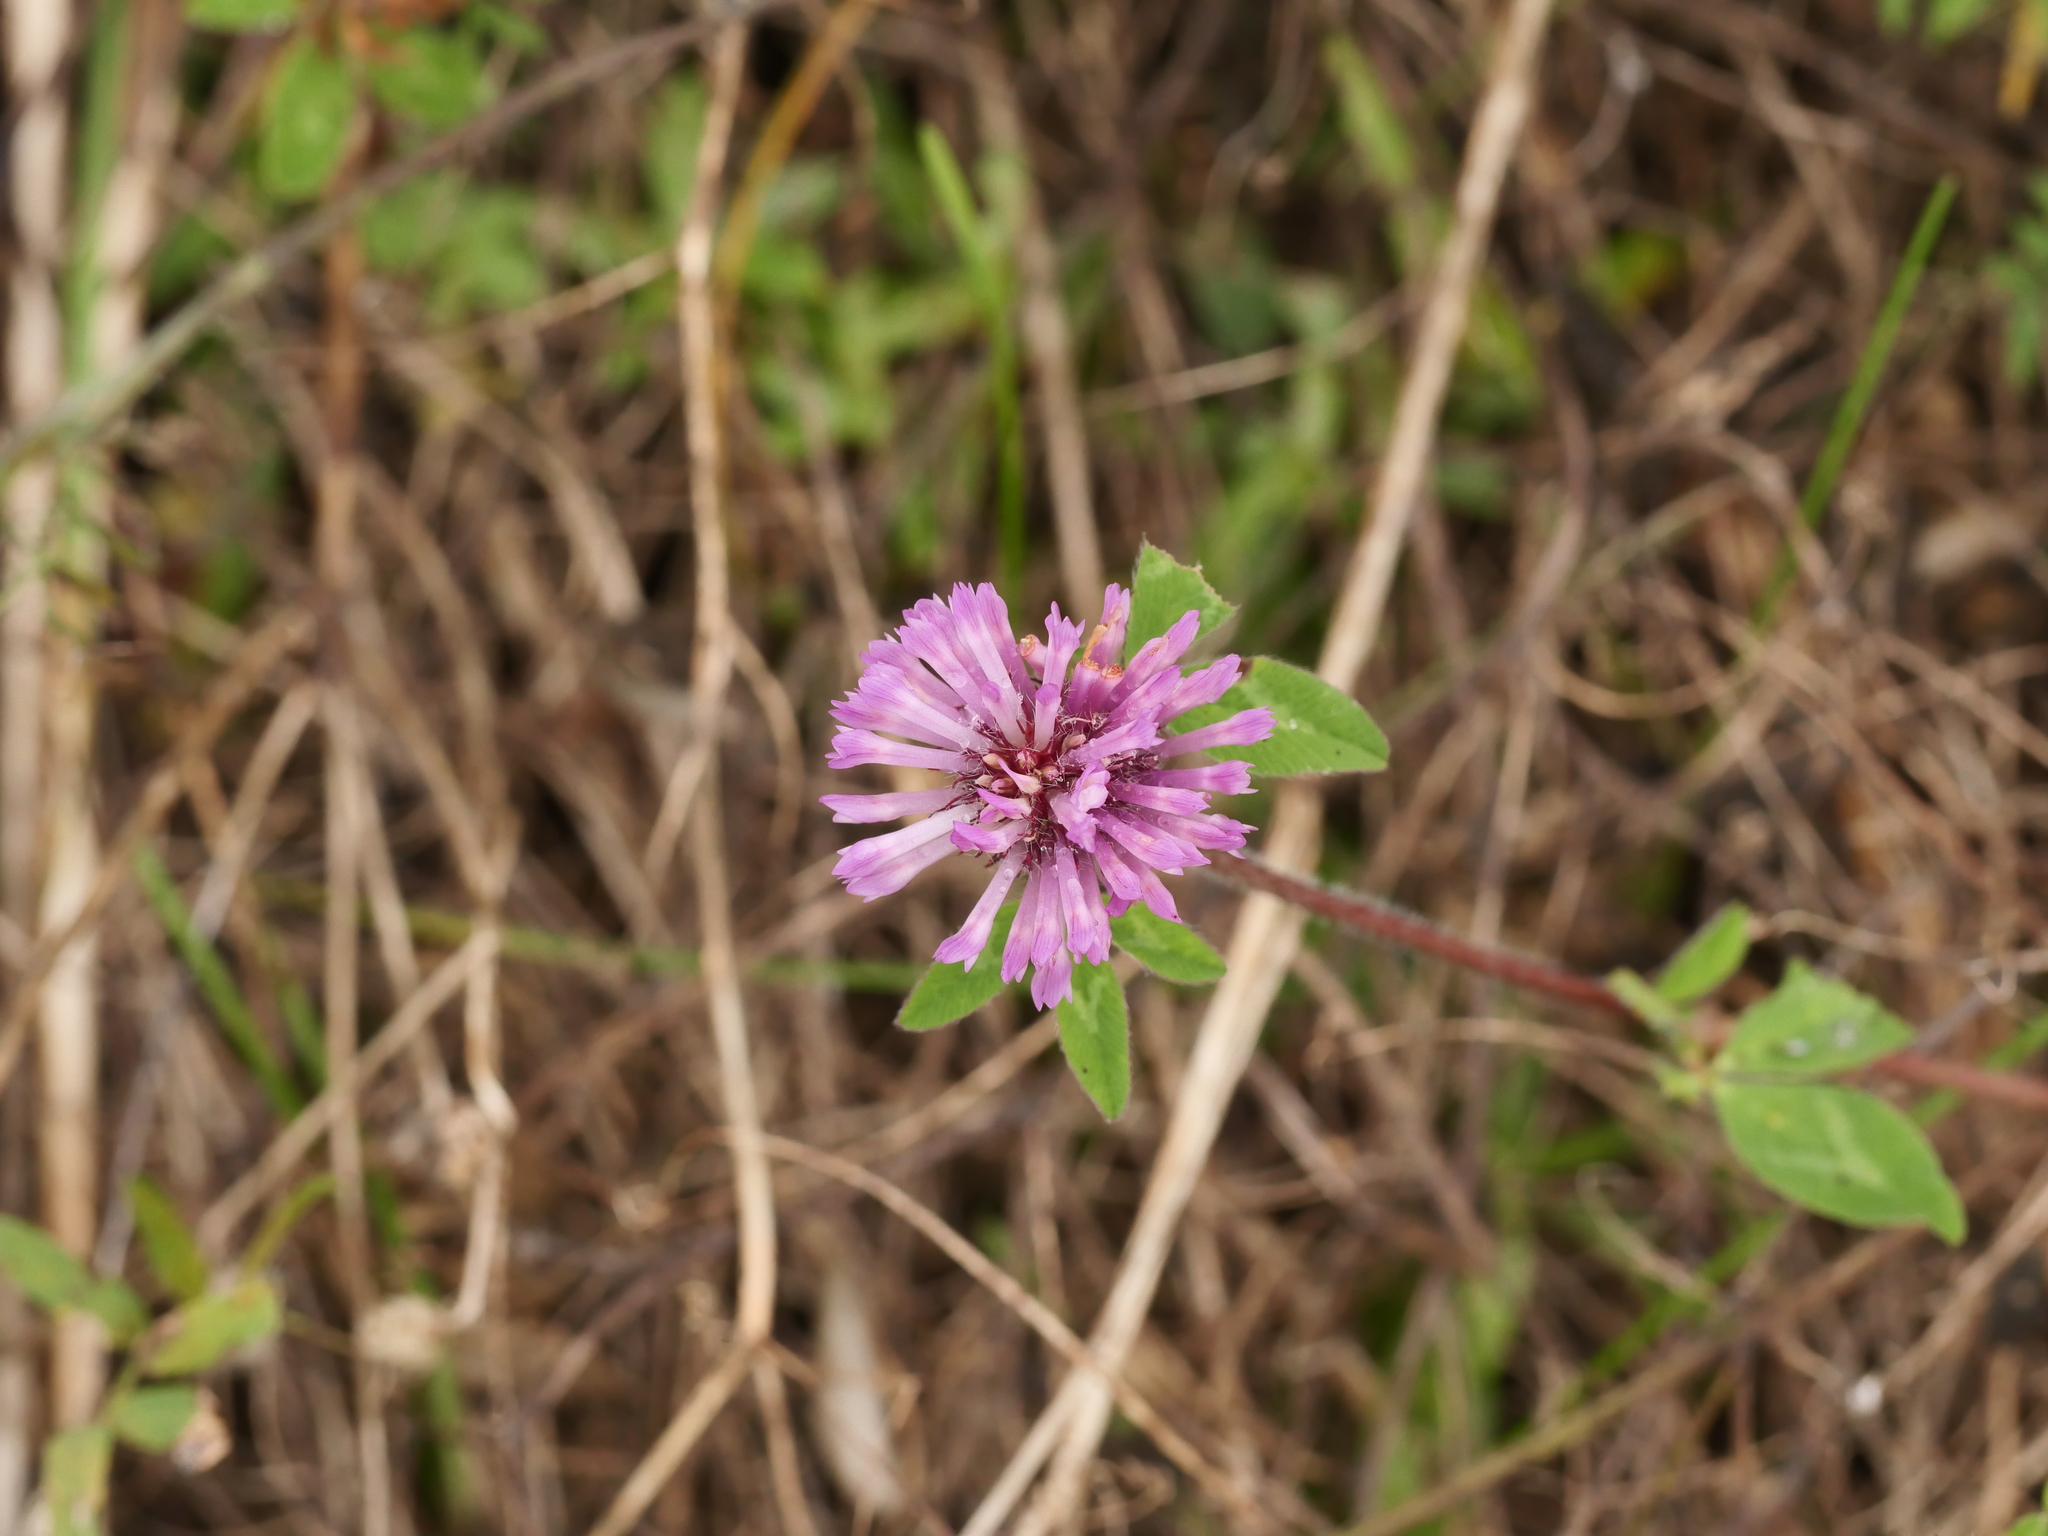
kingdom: Plantae
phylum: Tracheophyta
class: Magnoliopsida
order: Fabales
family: Fabaceae
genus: Trifolium
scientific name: Trifolium pratense
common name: Red clover
